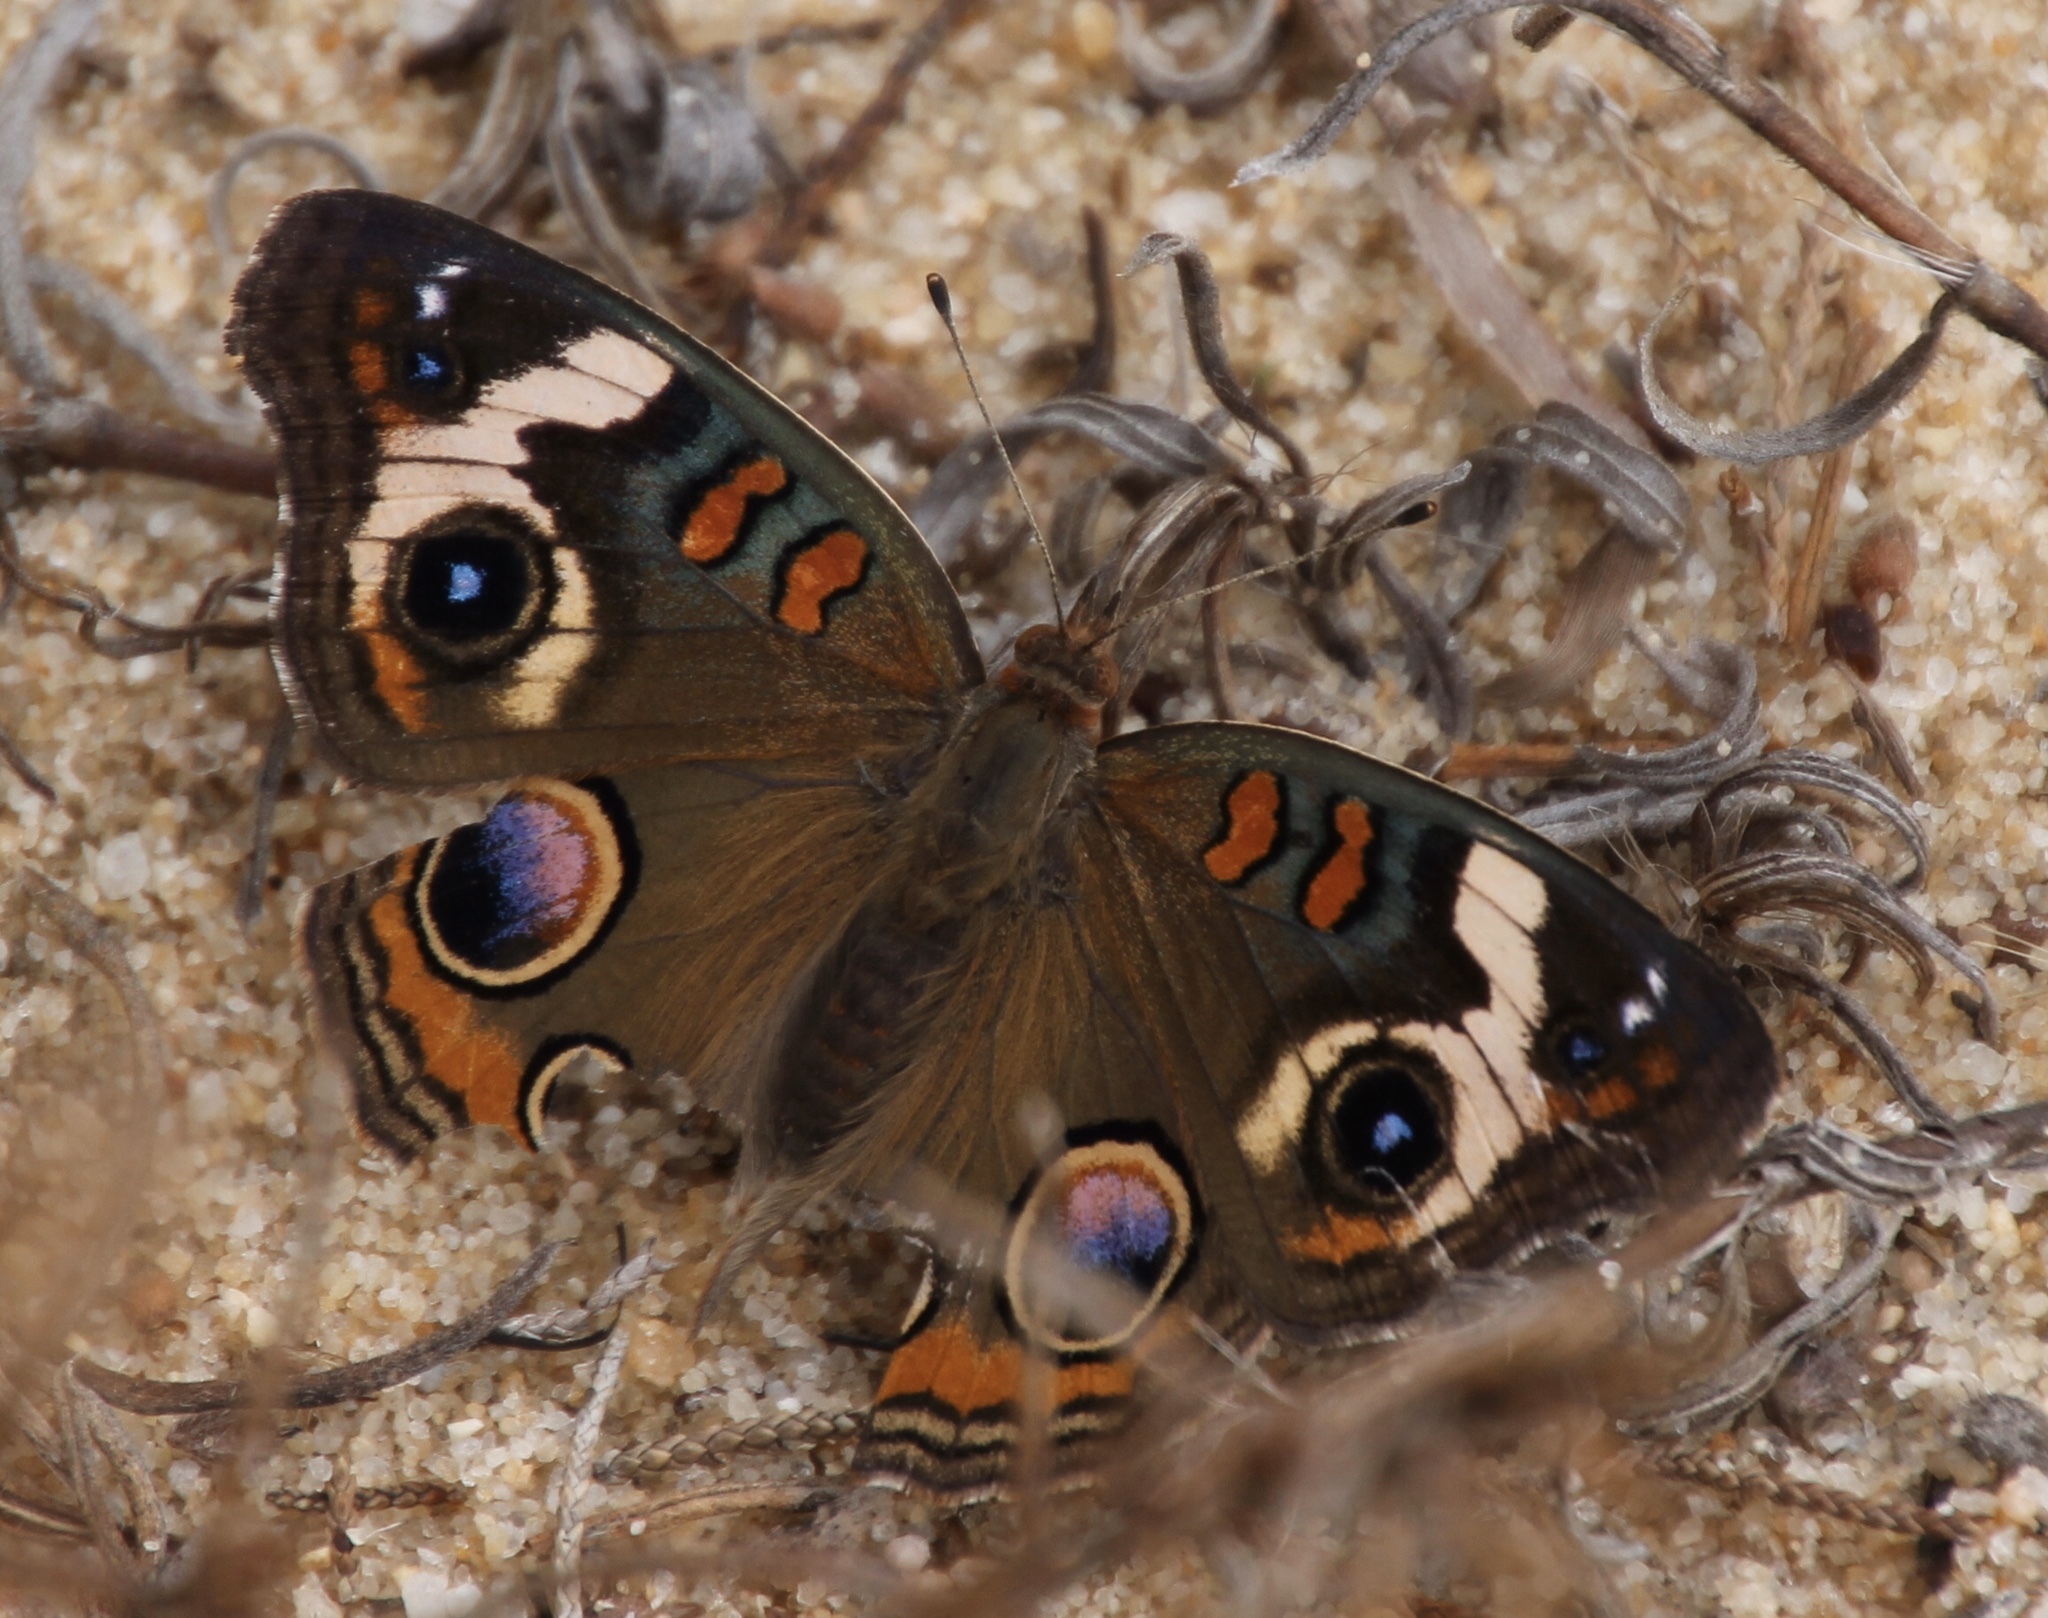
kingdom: Animalia
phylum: Arthropoda
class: Insecta
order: Lepidoptera
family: Nymphalidae
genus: Junonia
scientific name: Junonia coenia
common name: Common buckeye
